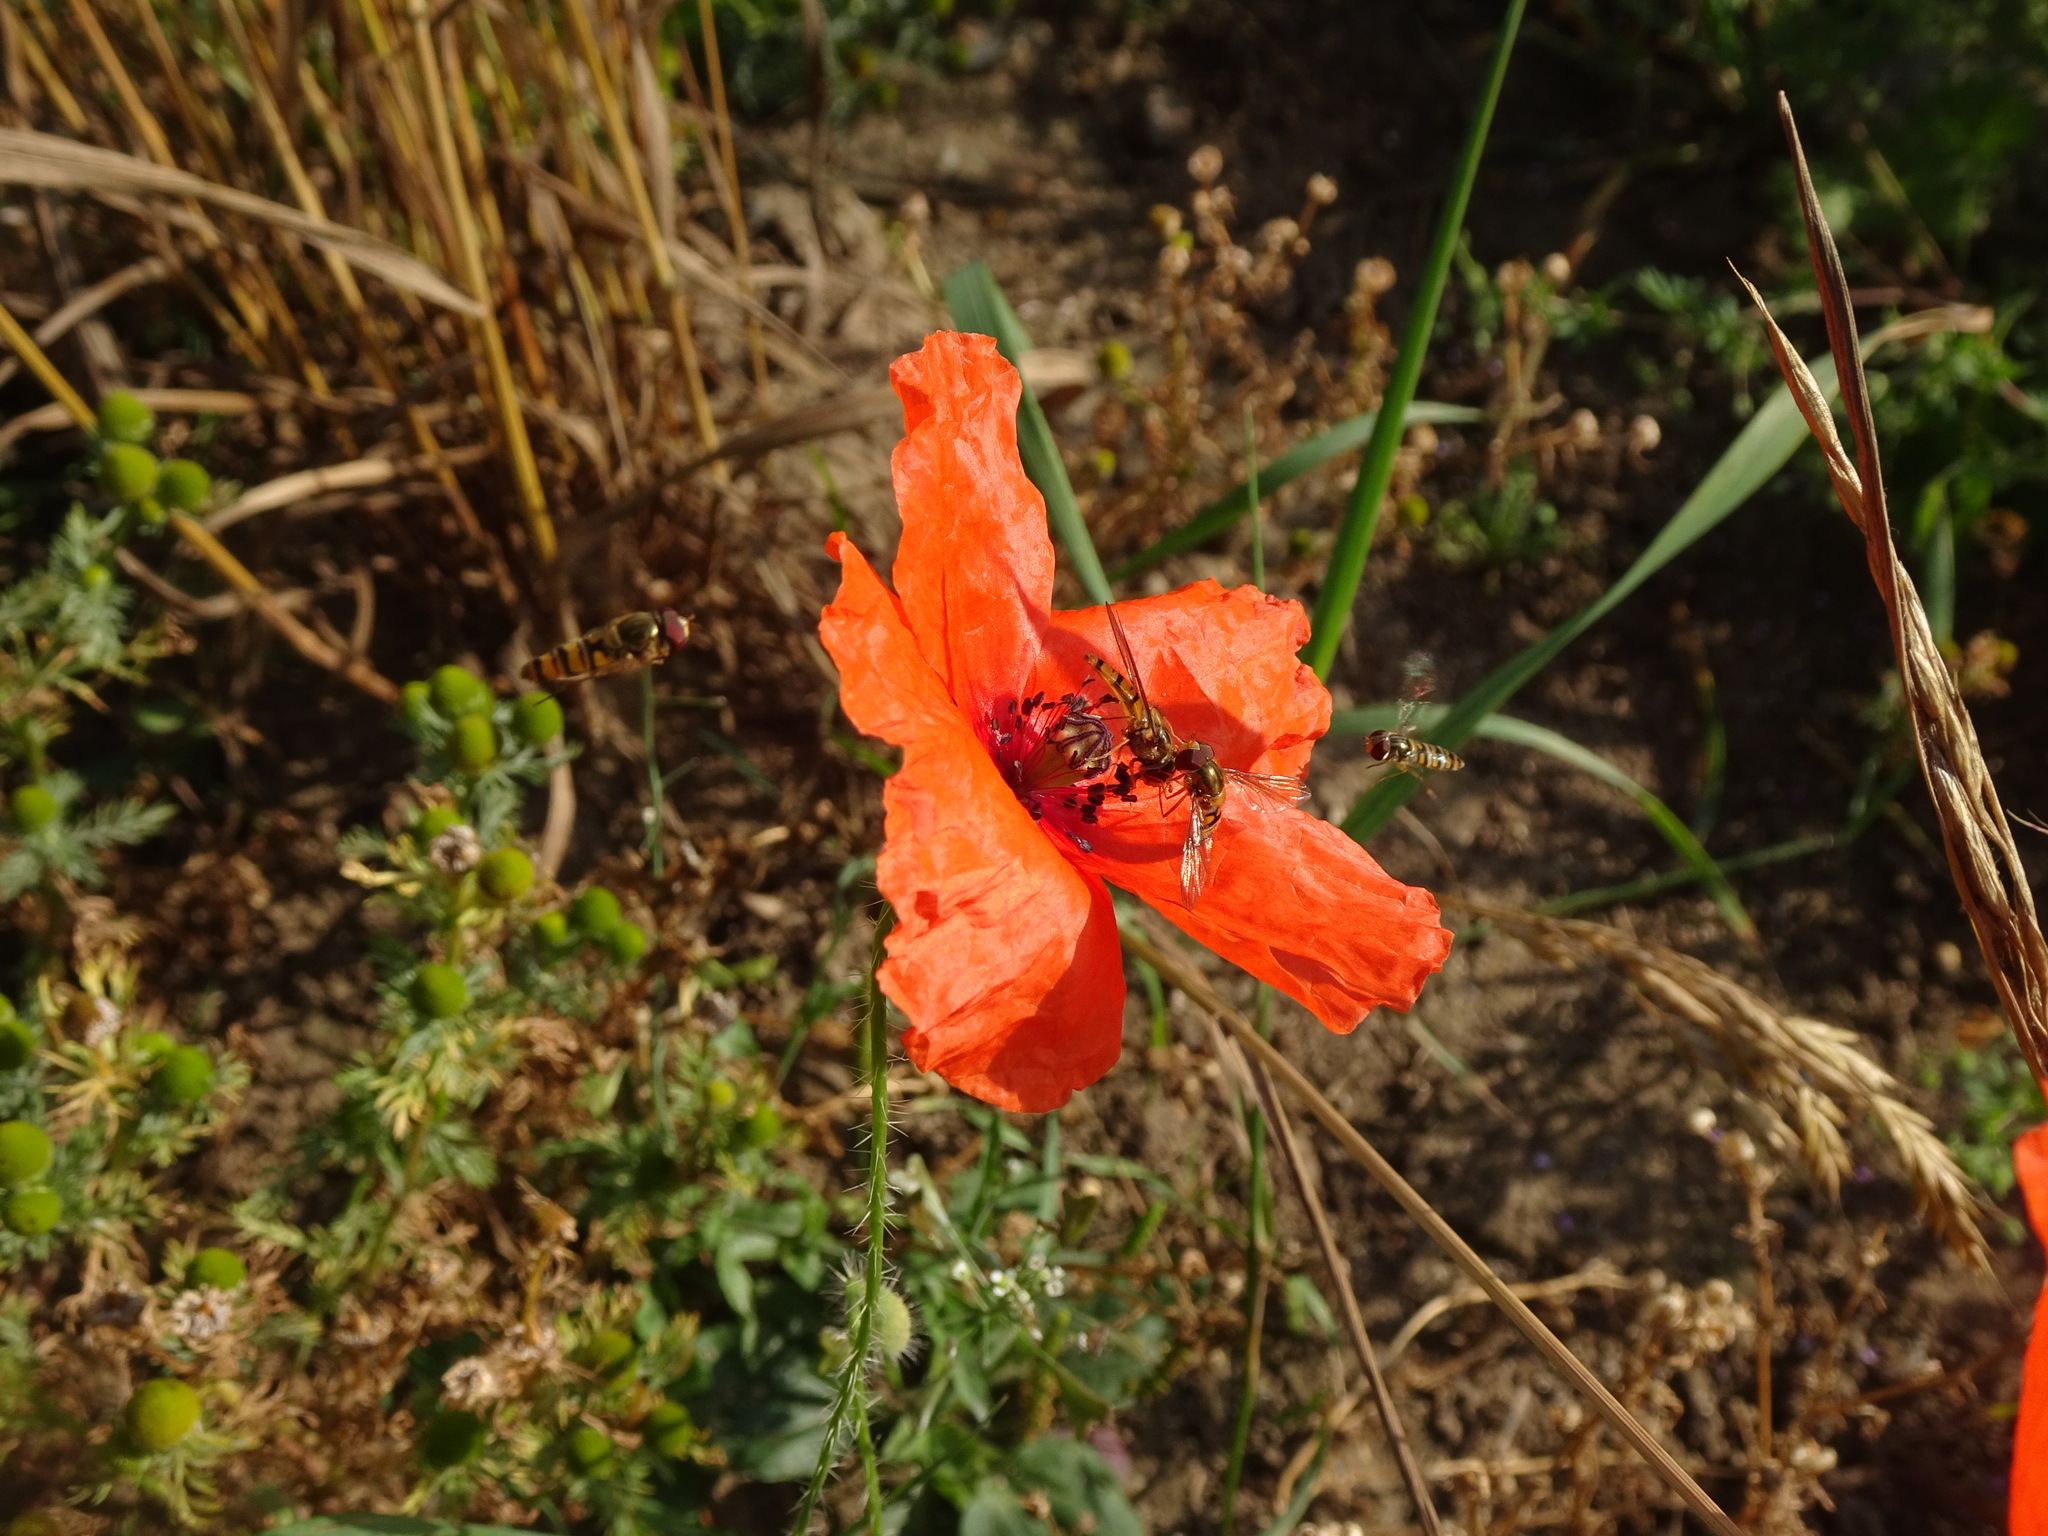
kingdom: Plantae
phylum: Tracheophyta
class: Magnoliopsida
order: Ranunculales
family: Papaveraceae
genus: Papaver
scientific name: Papaver rhoeas
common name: Corn poppy
